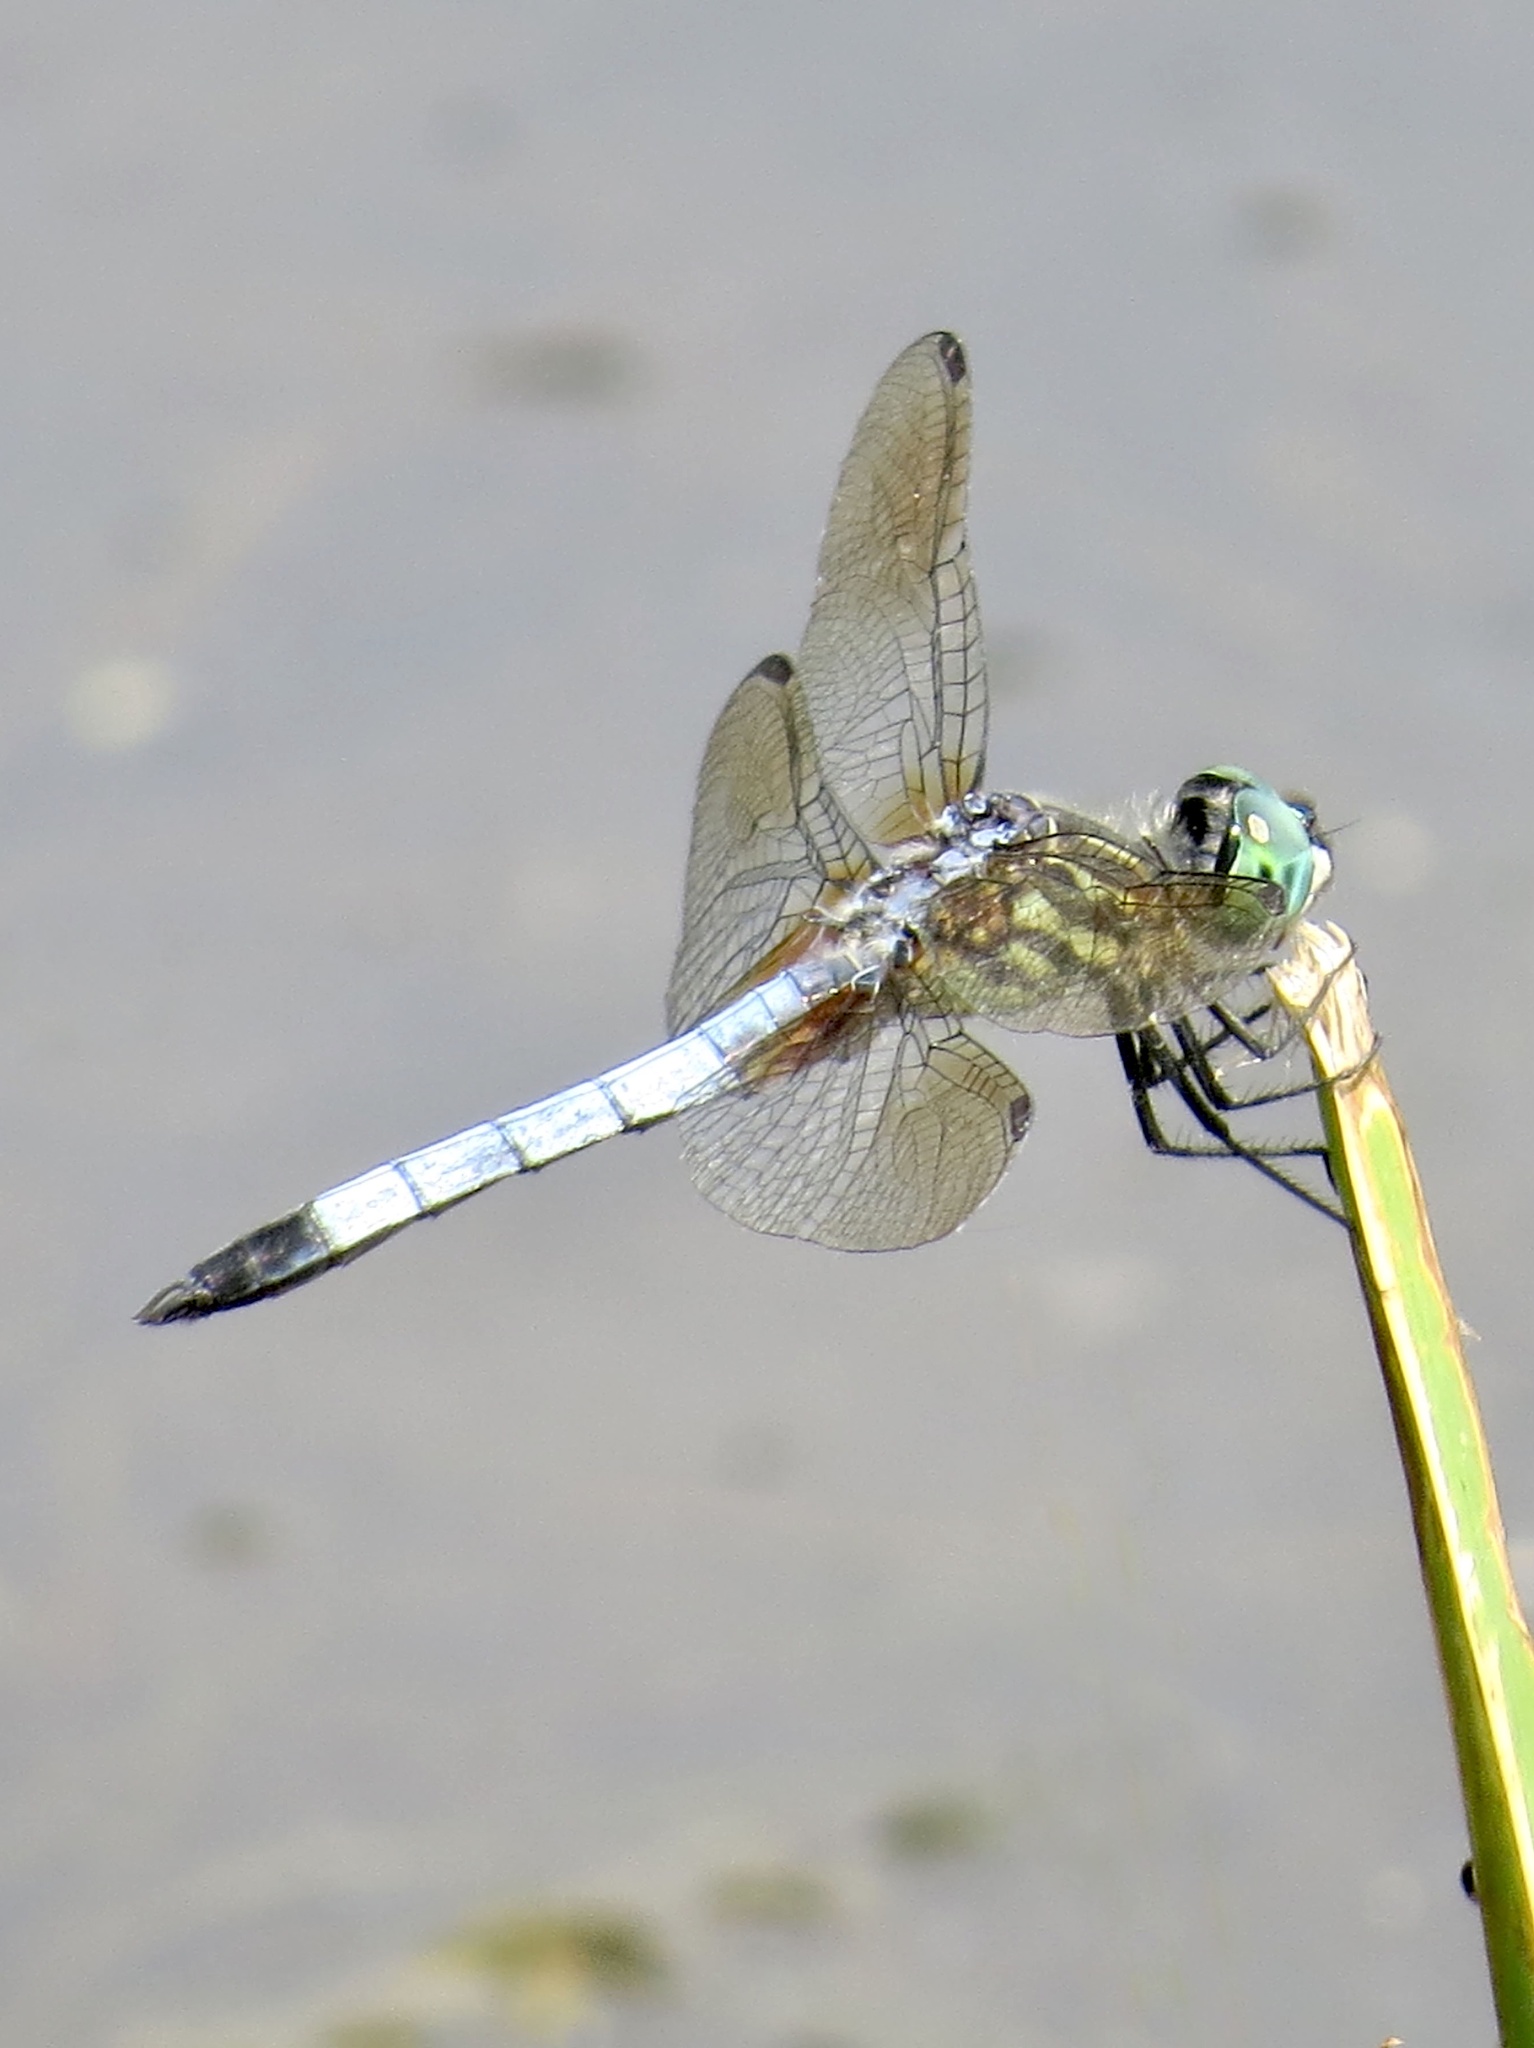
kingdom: Animalia
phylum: Arthropoda
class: Insecta
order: Odonata
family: Libellulidae
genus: Pachydiplax
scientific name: Pachydiplax longipennis
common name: Blue dasher
